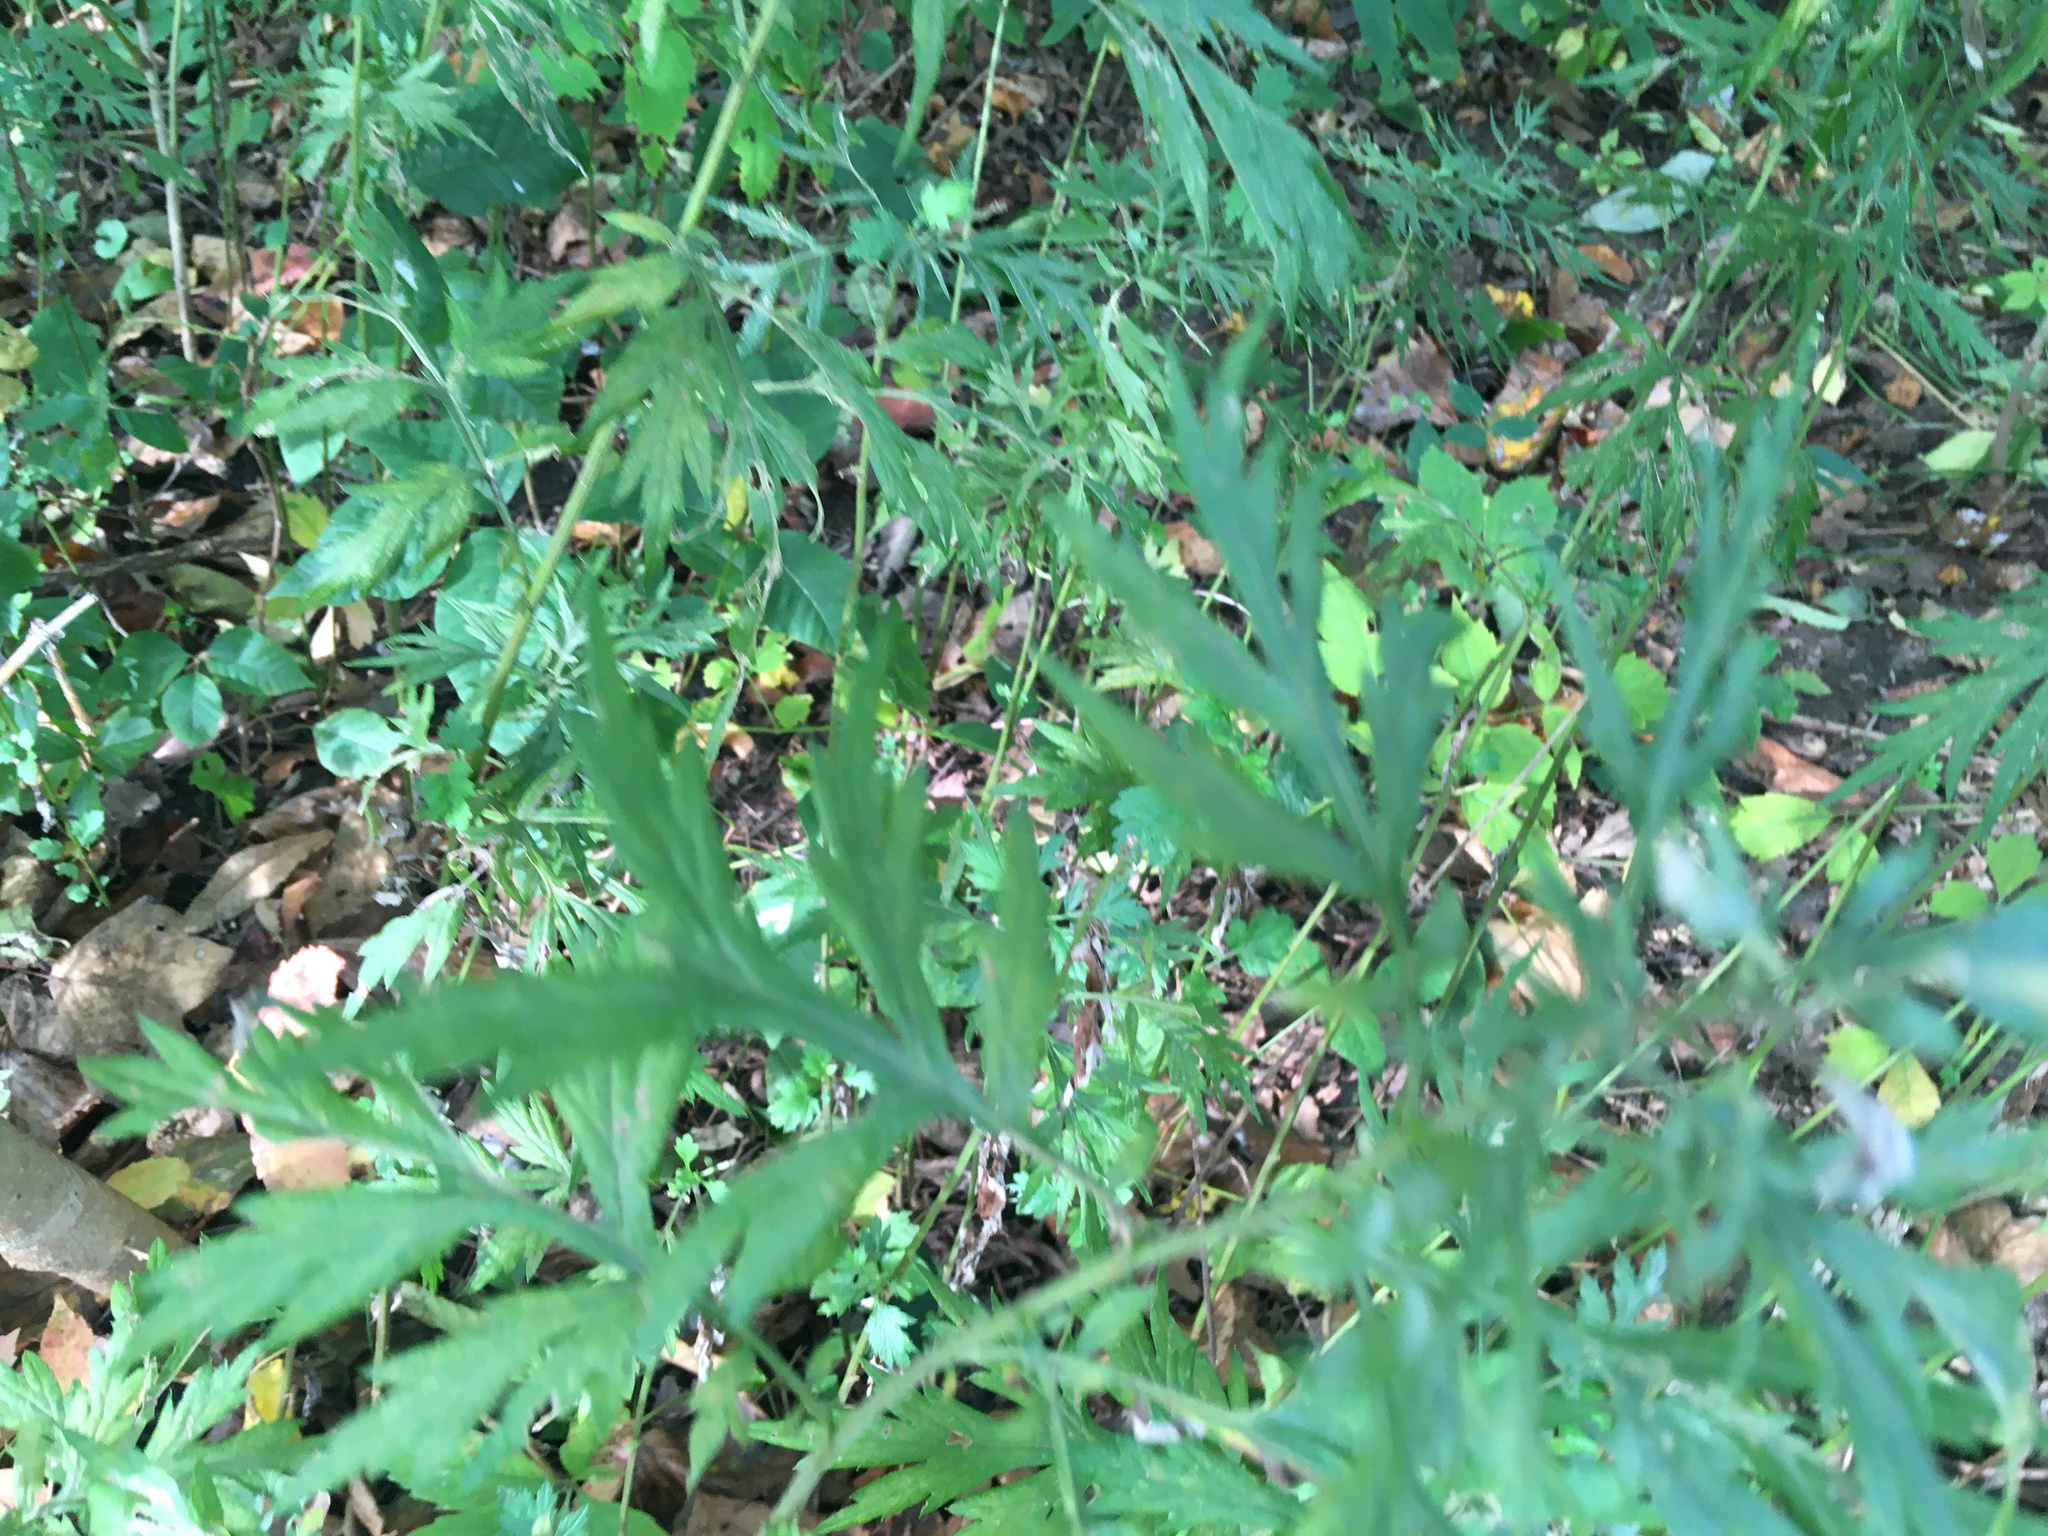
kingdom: Plantae
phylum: Tracheophyta
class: Magnoliopsida
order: Asterales
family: Asteraceae
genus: Artemisia
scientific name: Artemisia vulgaris
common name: Mugwort
